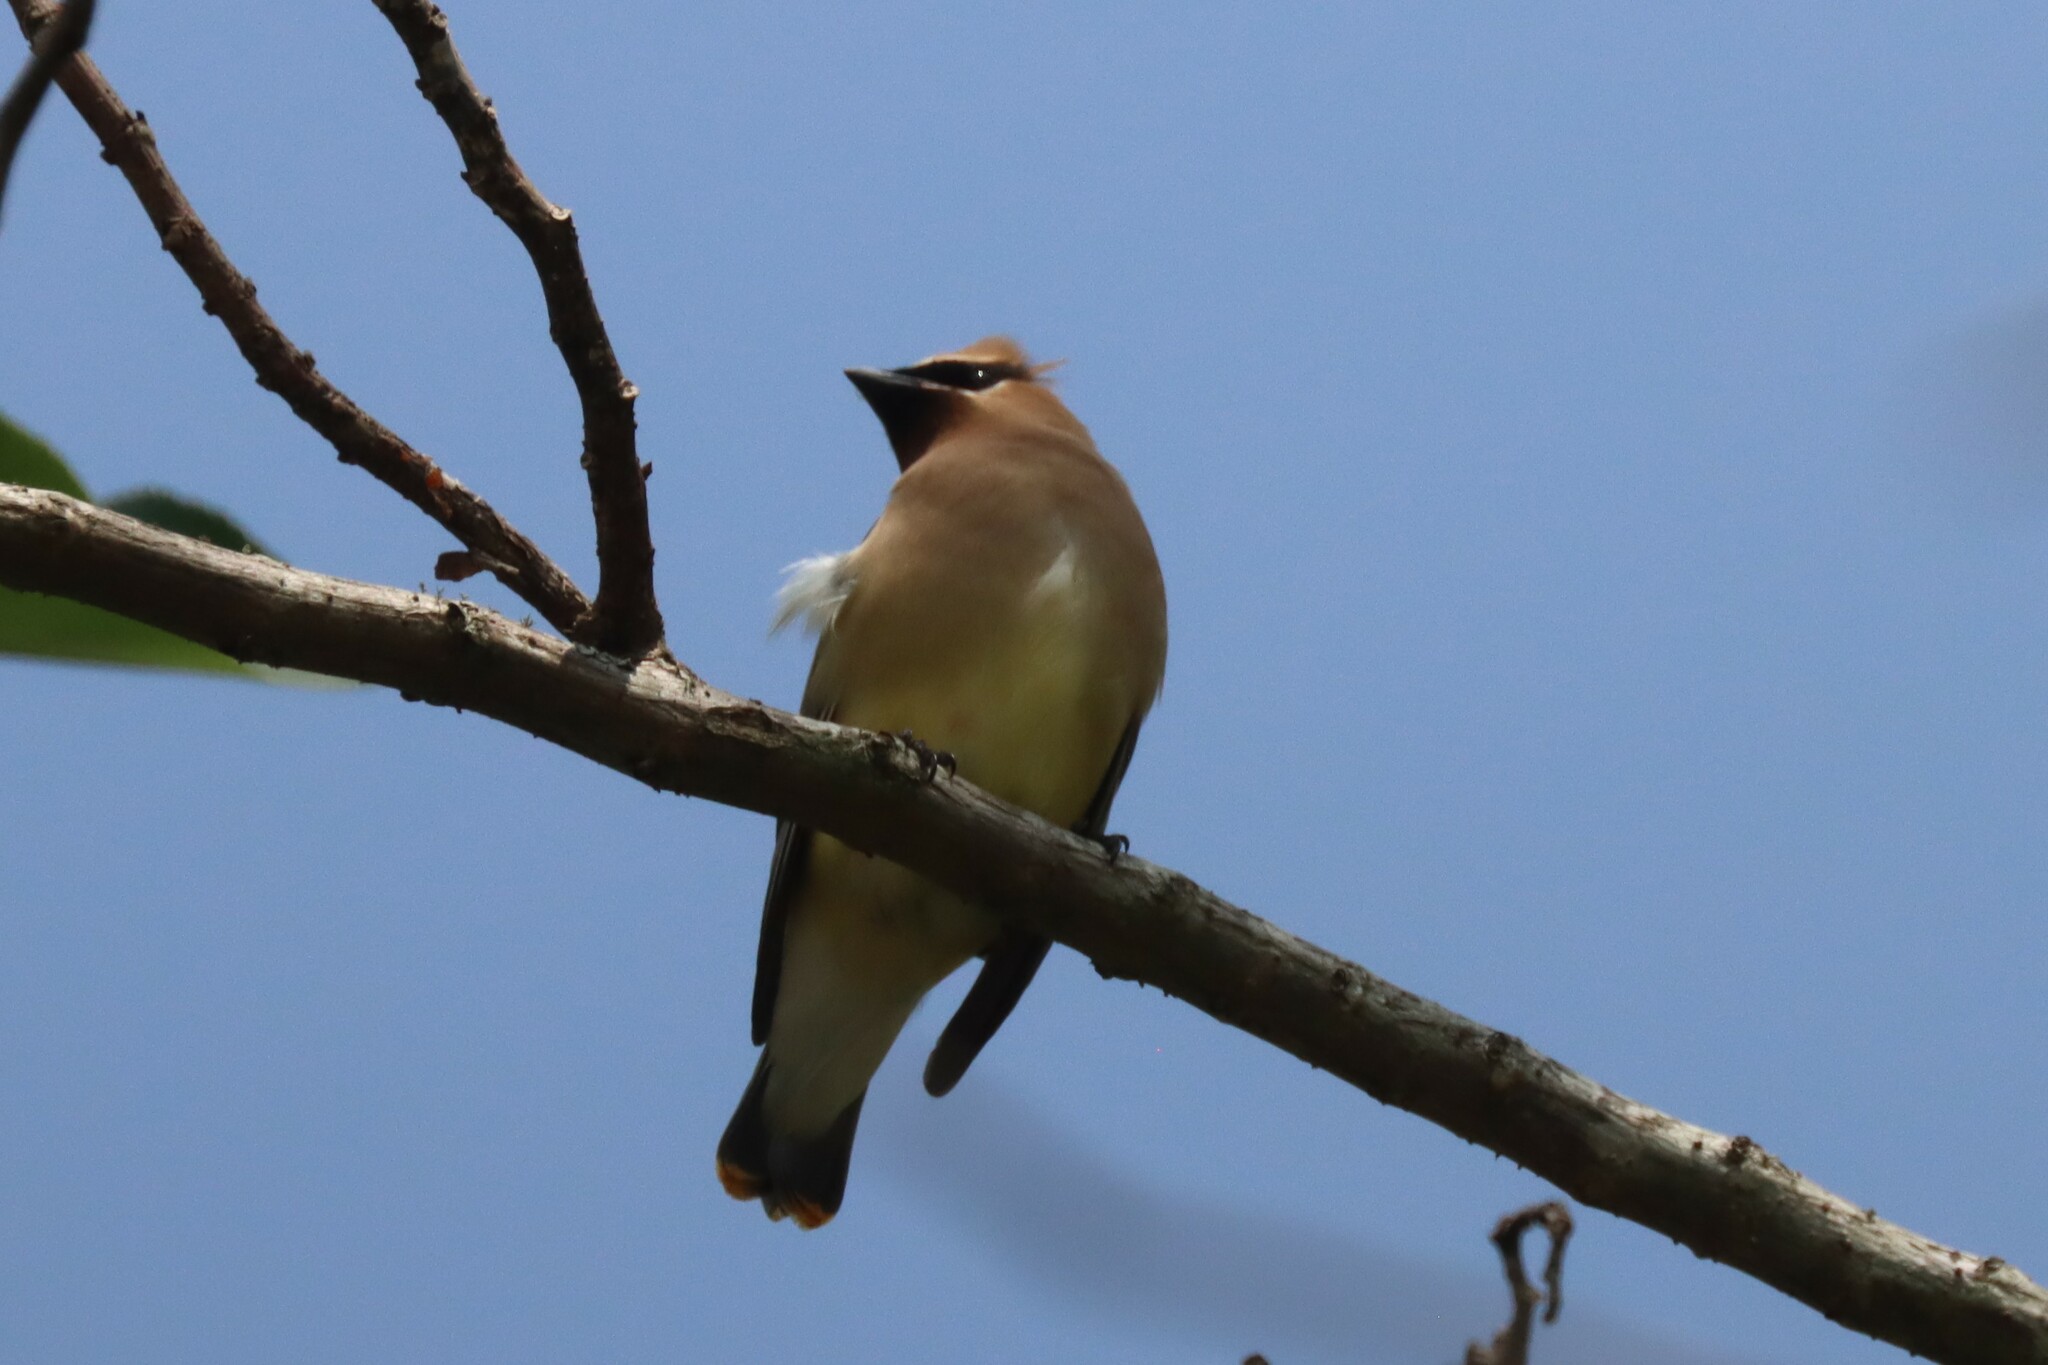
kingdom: Animalia
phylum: Chordata
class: Aves
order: Passeriformes
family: Bombycillidae
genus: Bombycilla
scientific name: Bombycilla cedrorum
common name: Cedar waxwing
